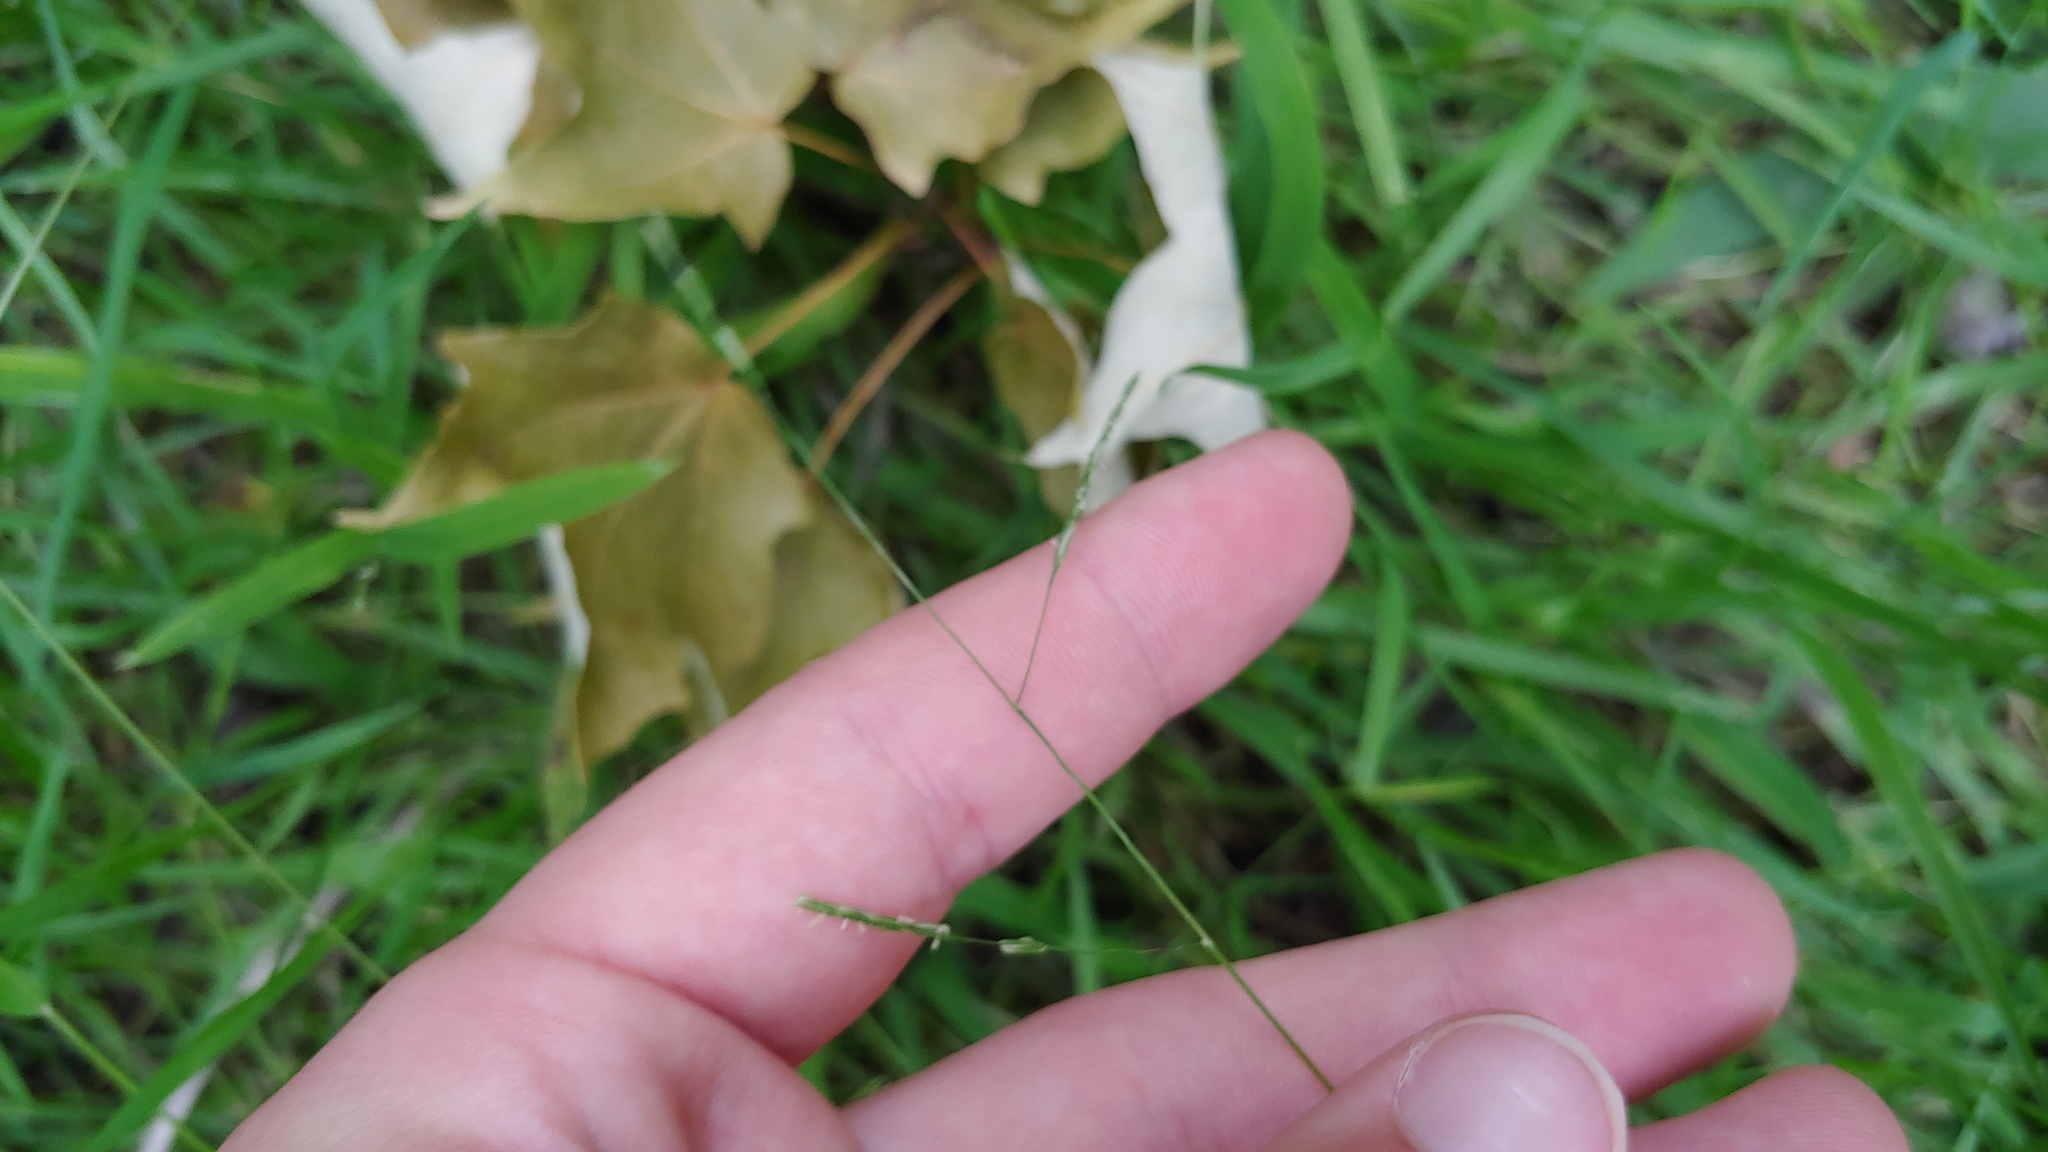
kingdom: Plantae
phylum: Tracheophyta
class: Liliopsida
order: Poales
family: Poaceae
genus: Leersia
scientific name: Leersia virginica
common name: White cutgrass
